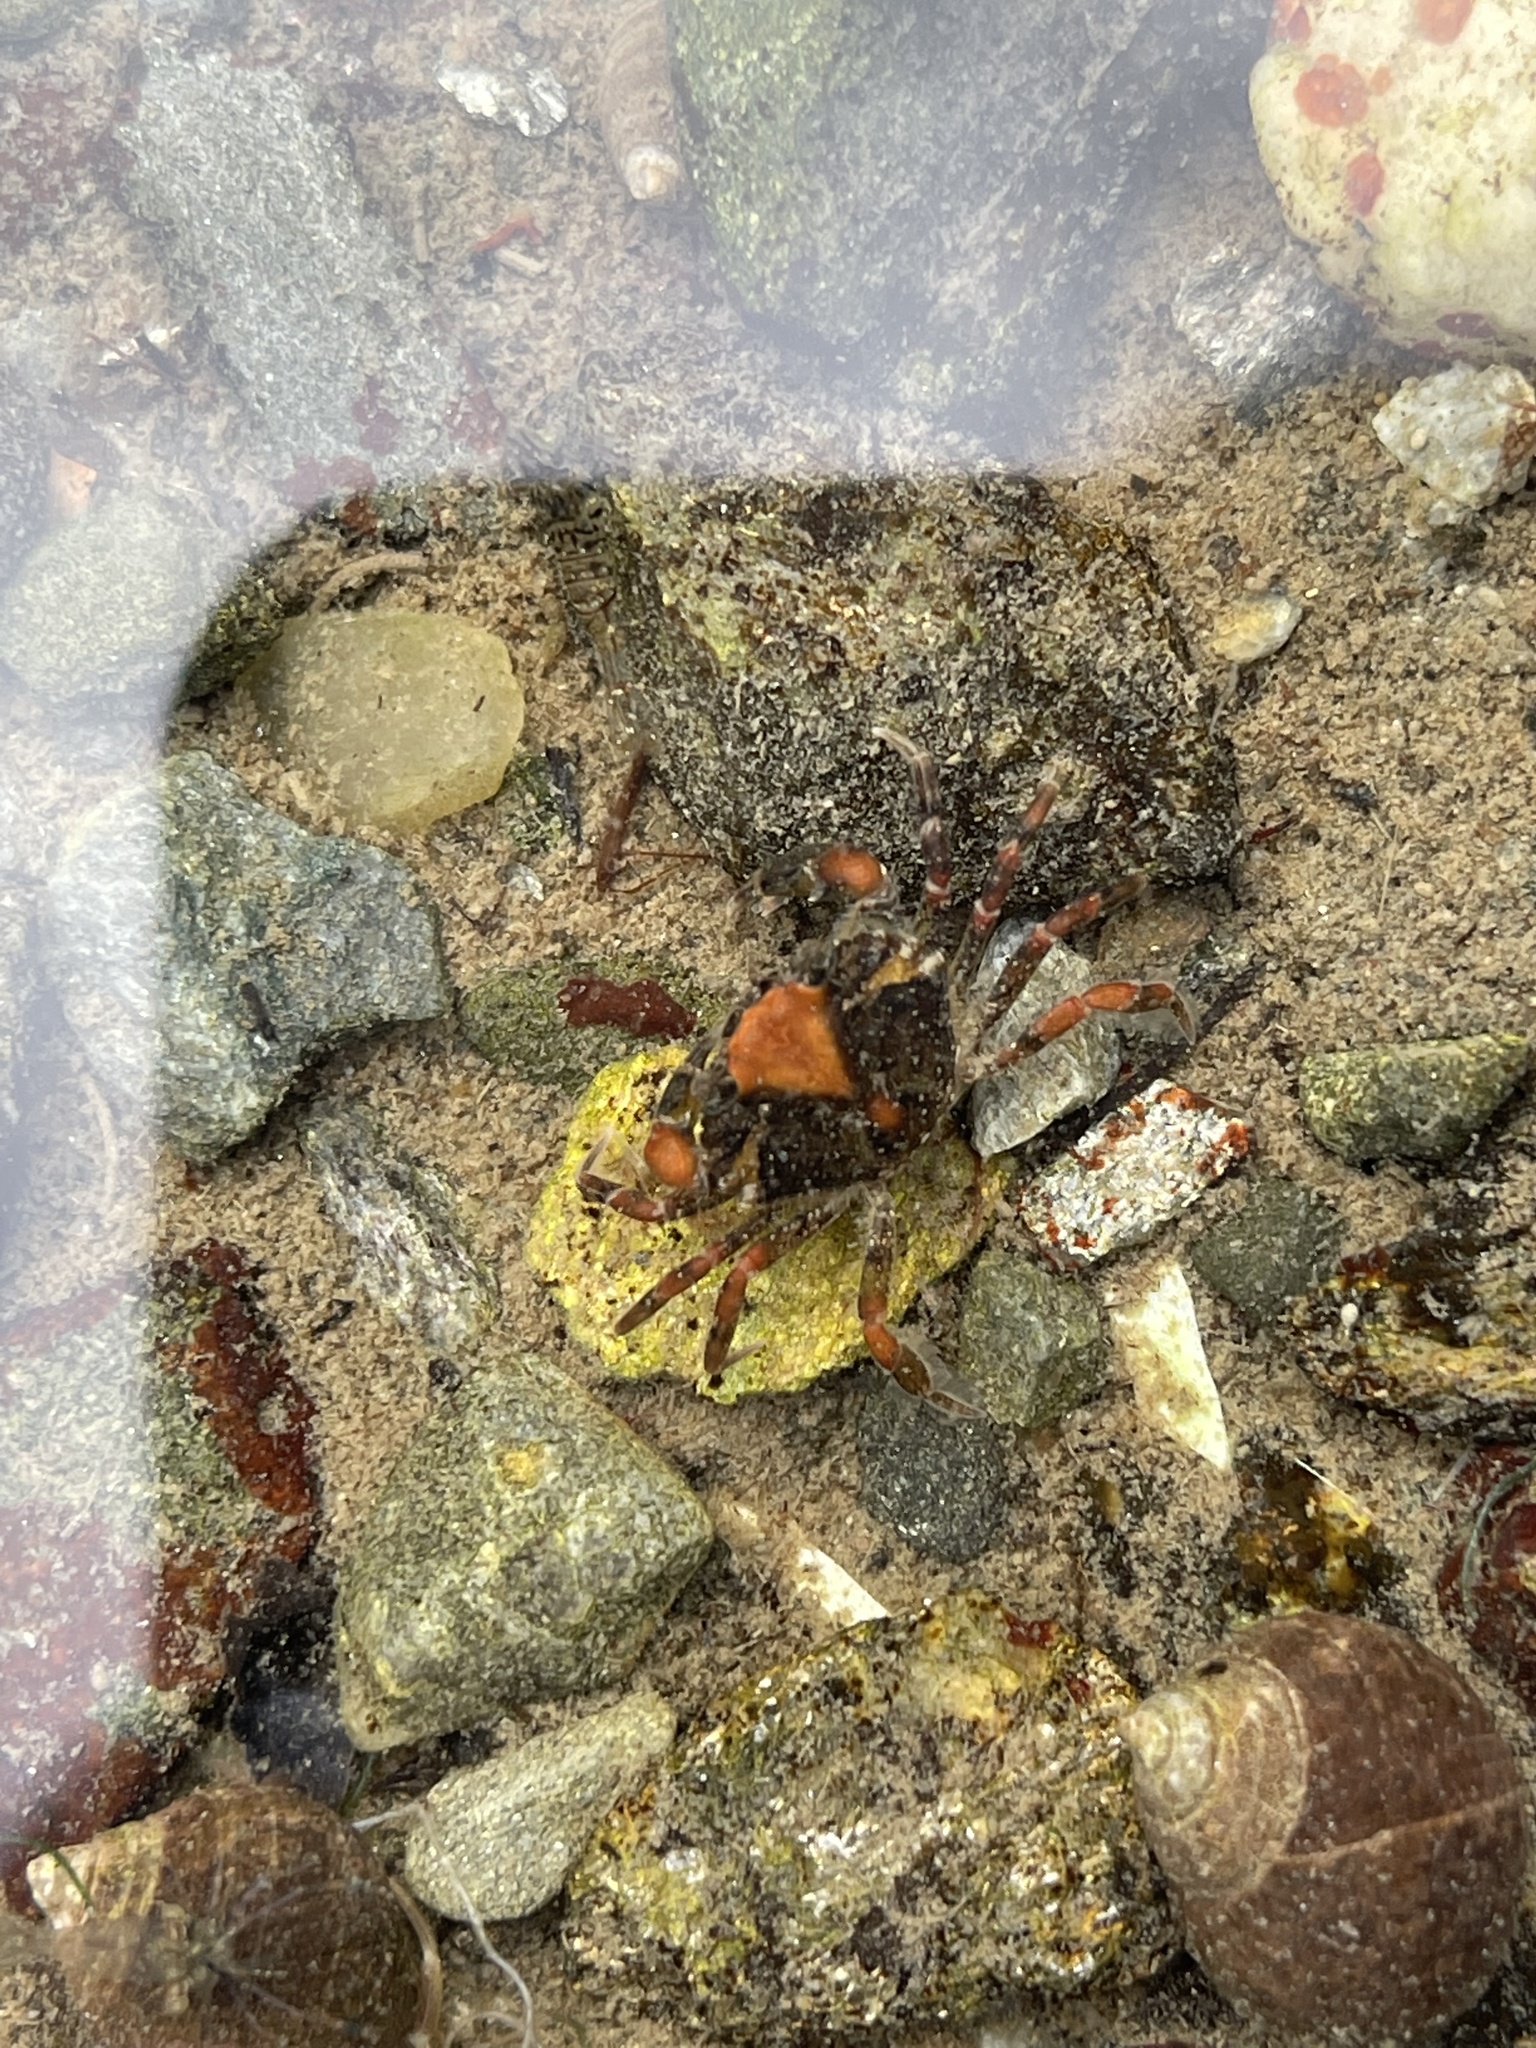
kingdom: Animalia
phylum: Arthropoda
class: Malacostraca
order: Decapoda
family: Carcinidae
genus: Carcinus
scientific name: Carcinus maenas
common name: European green crab
